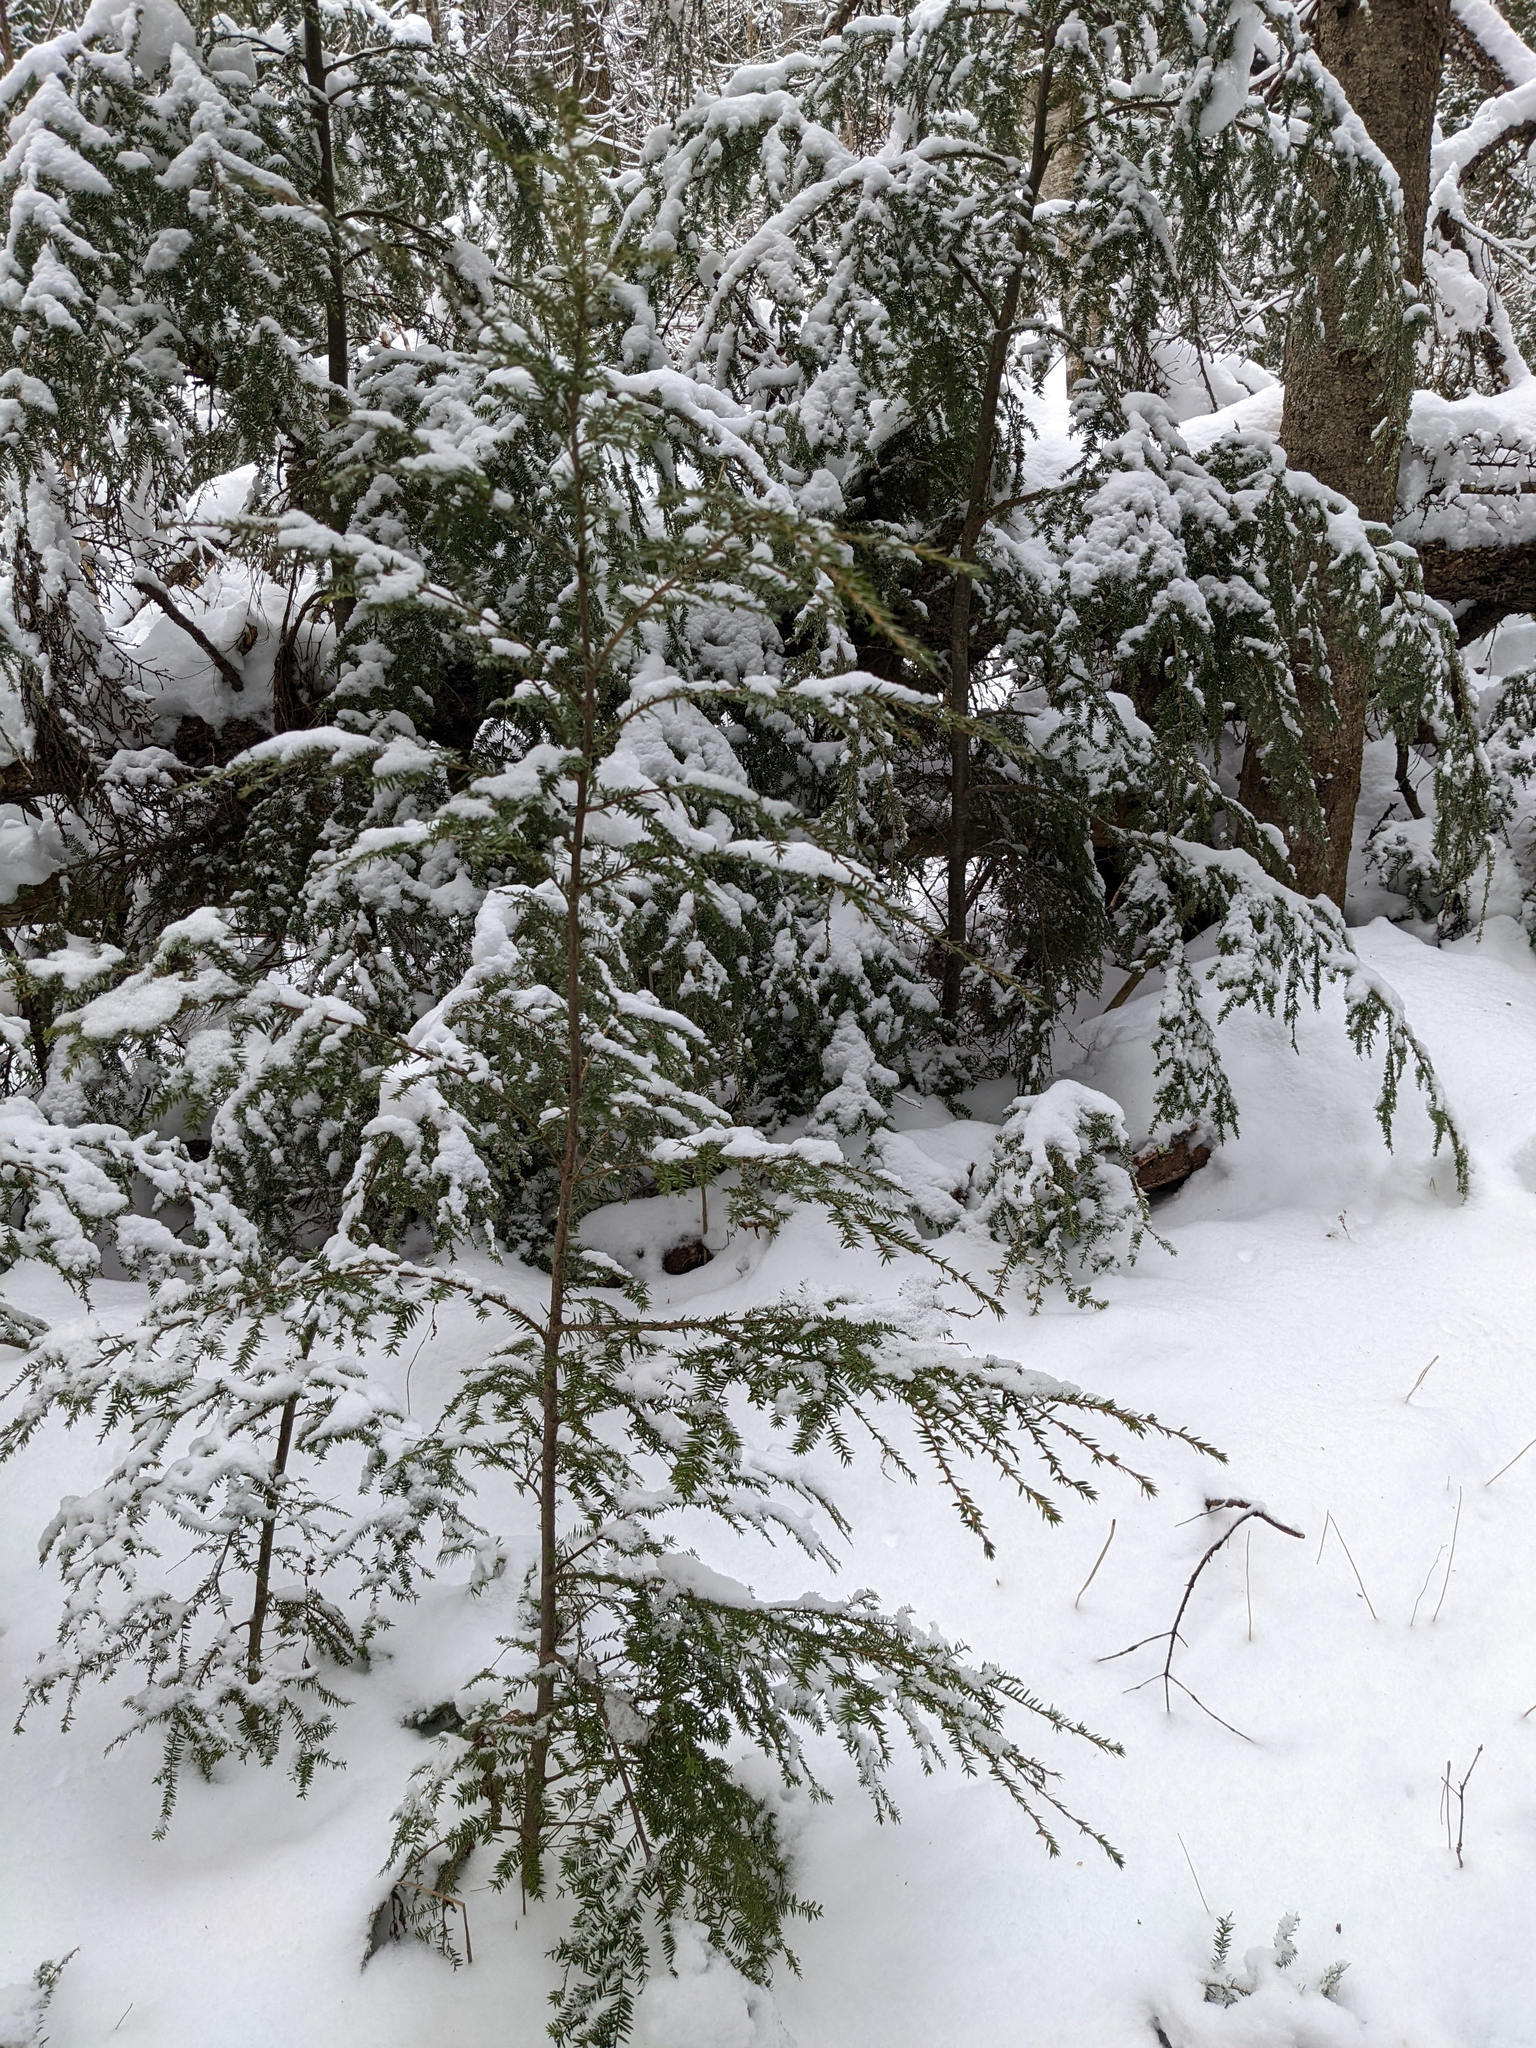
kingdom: Plantae
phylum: Tracheophyta
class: Pinopsida
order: Pinales
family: Pinaceae
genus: Tsuga
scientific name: Tsuga canadensis
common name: Eastern hemlock
